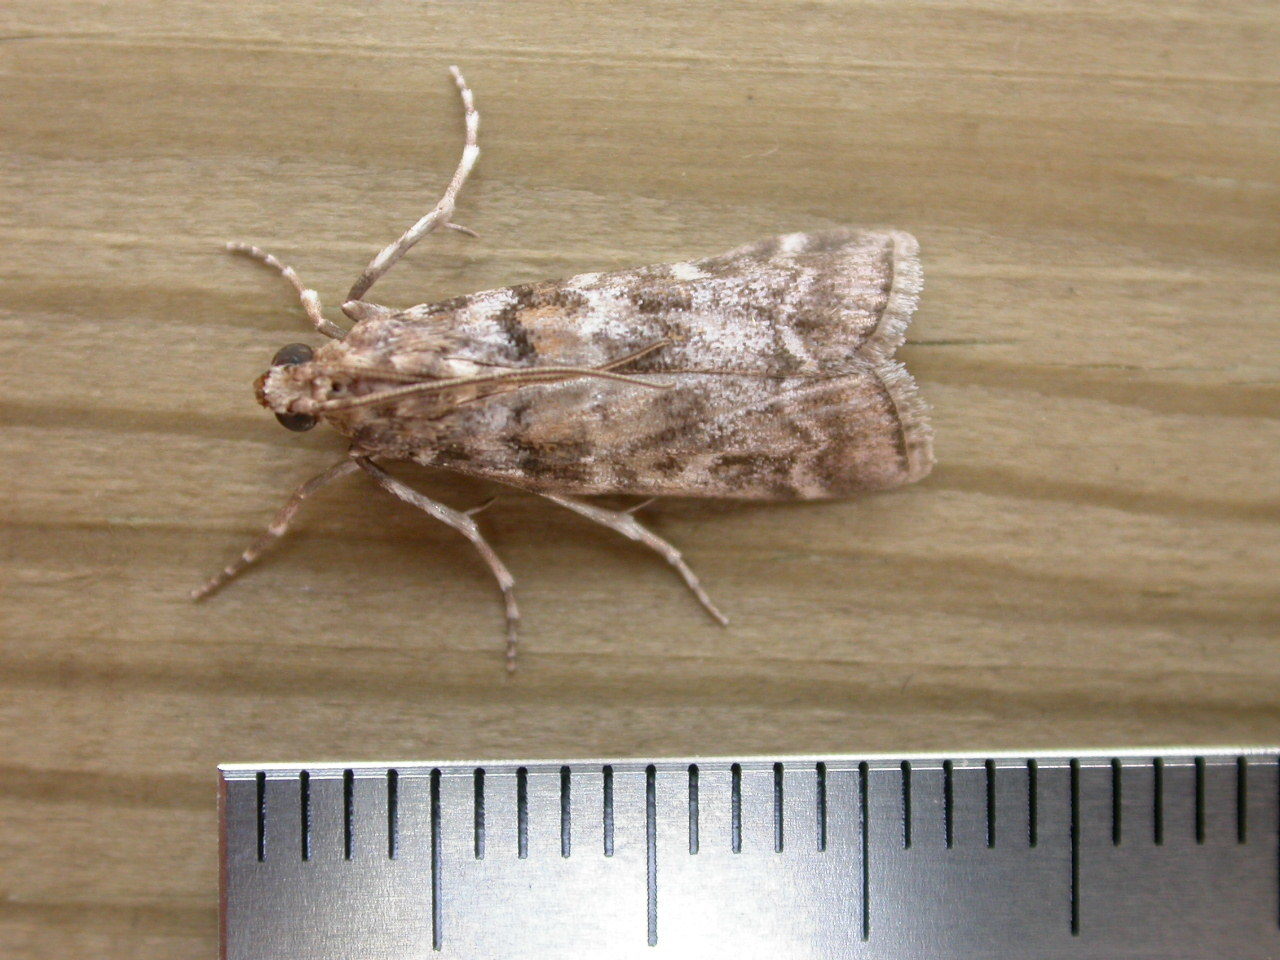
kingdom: Animalia
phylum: Arthropoda
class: Insecta
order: Lepidoptera
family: Pyralidae
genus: Dioryctria
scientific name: Dioryctria sylvestrella
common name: New pine knot-horn
